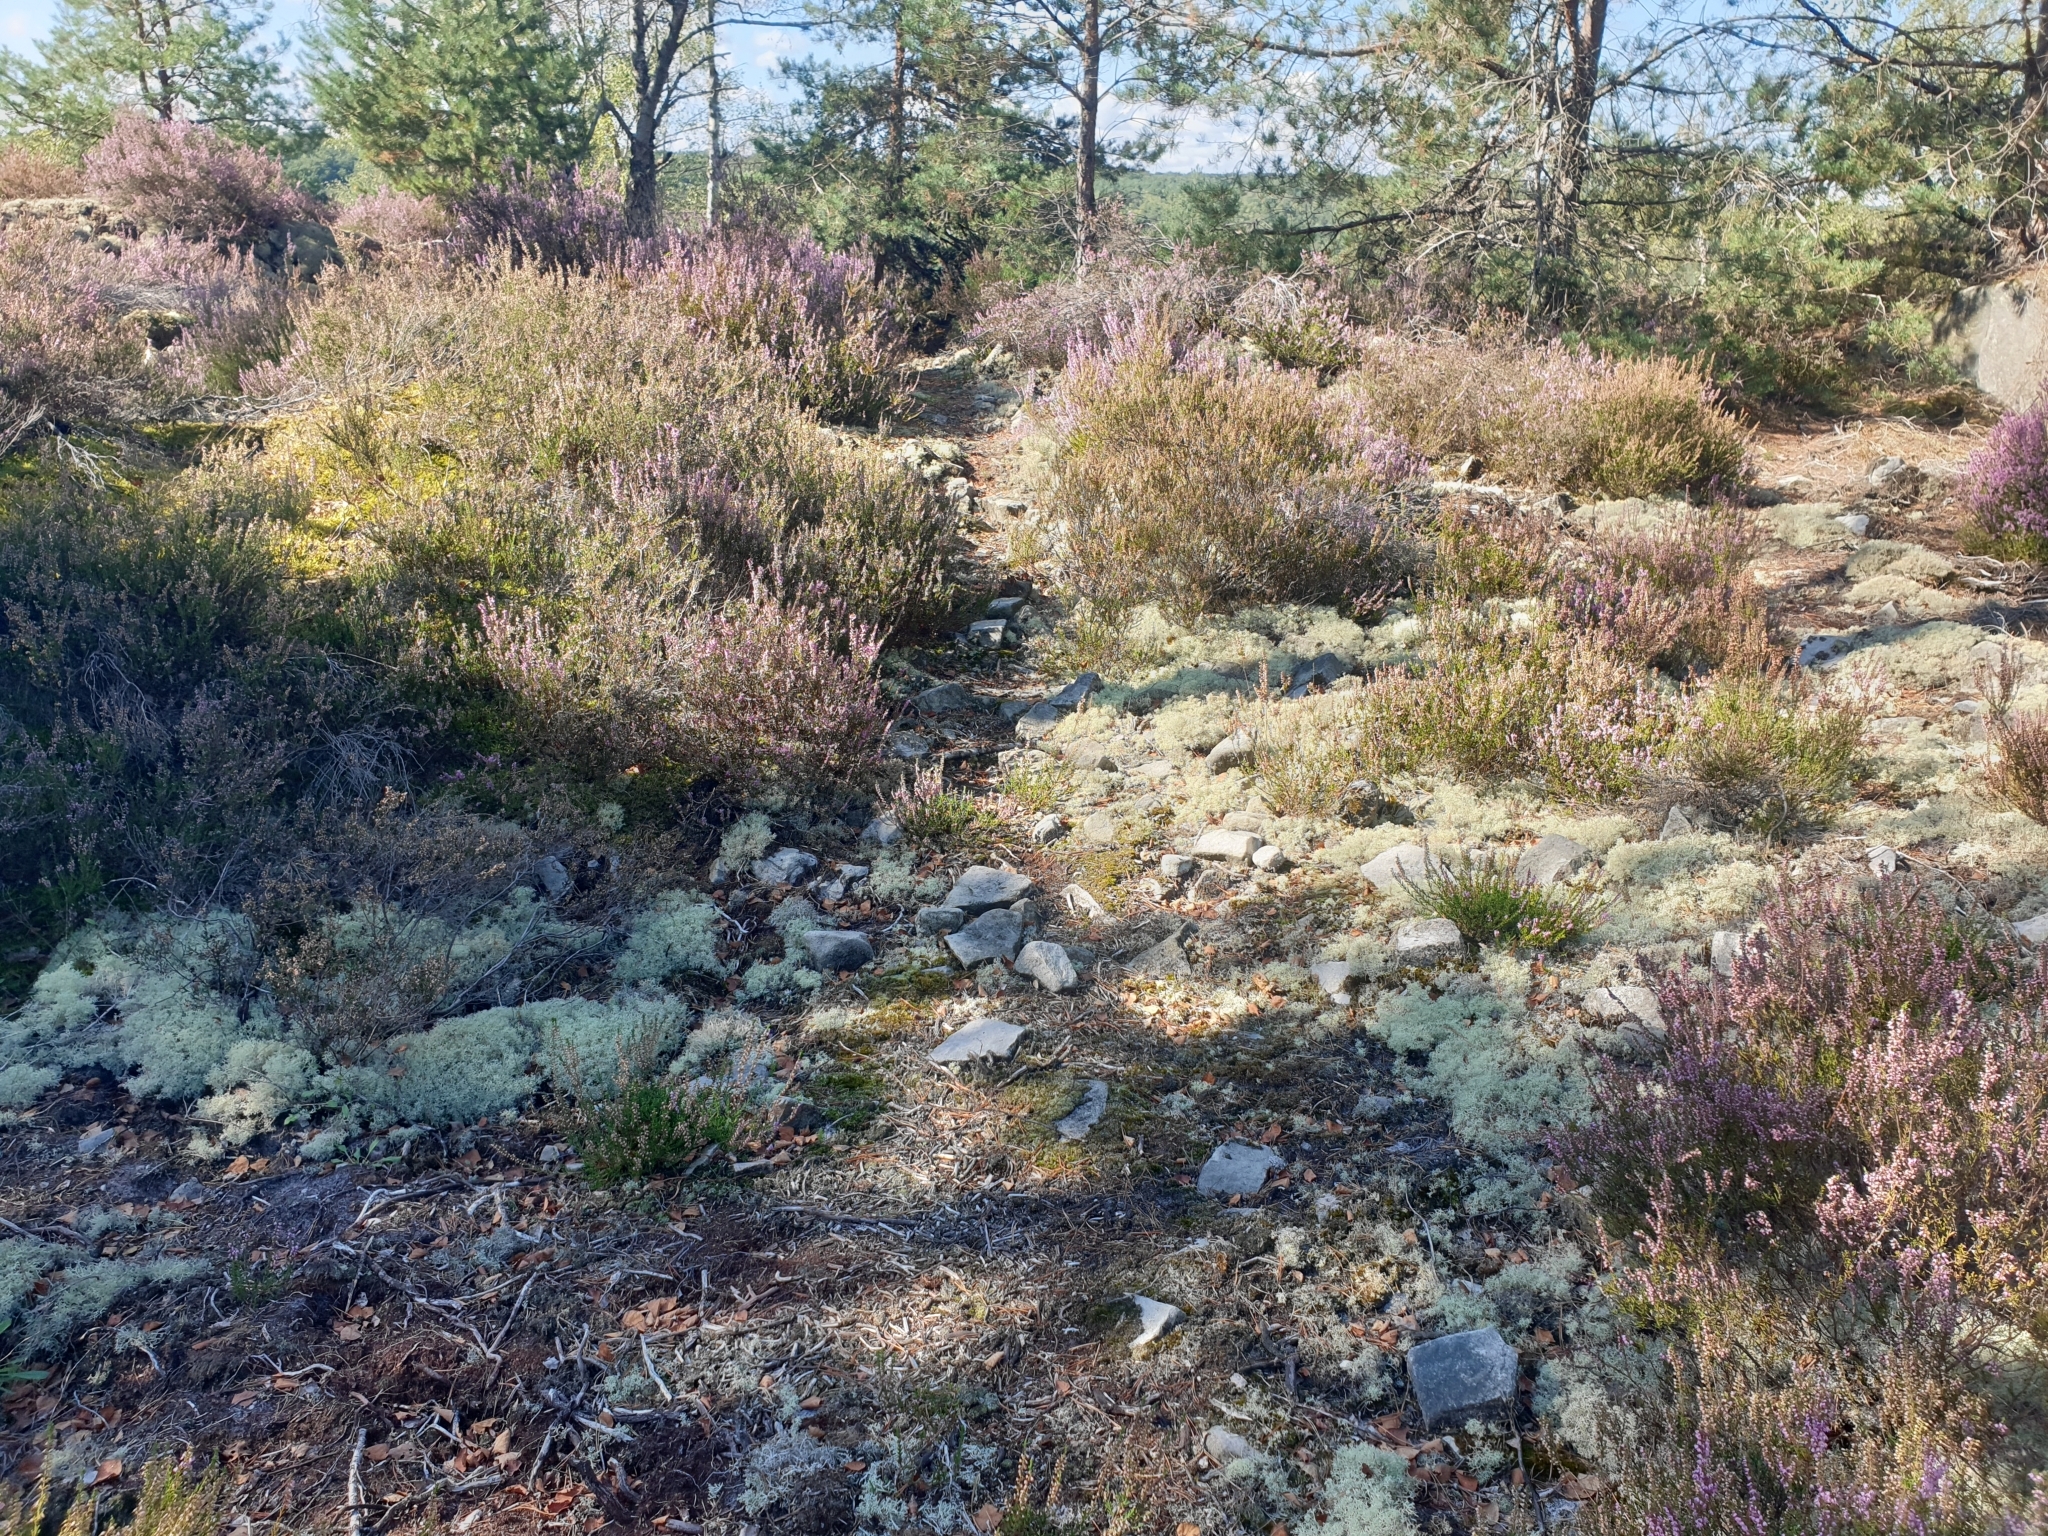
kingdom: Fungi
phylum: Ascomycota
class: Lecanoromycetes
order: Lecanorales
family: Cladoniaceae
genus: Cladonia
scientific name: Cladonia arbuscula
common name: Reindeer lichen
